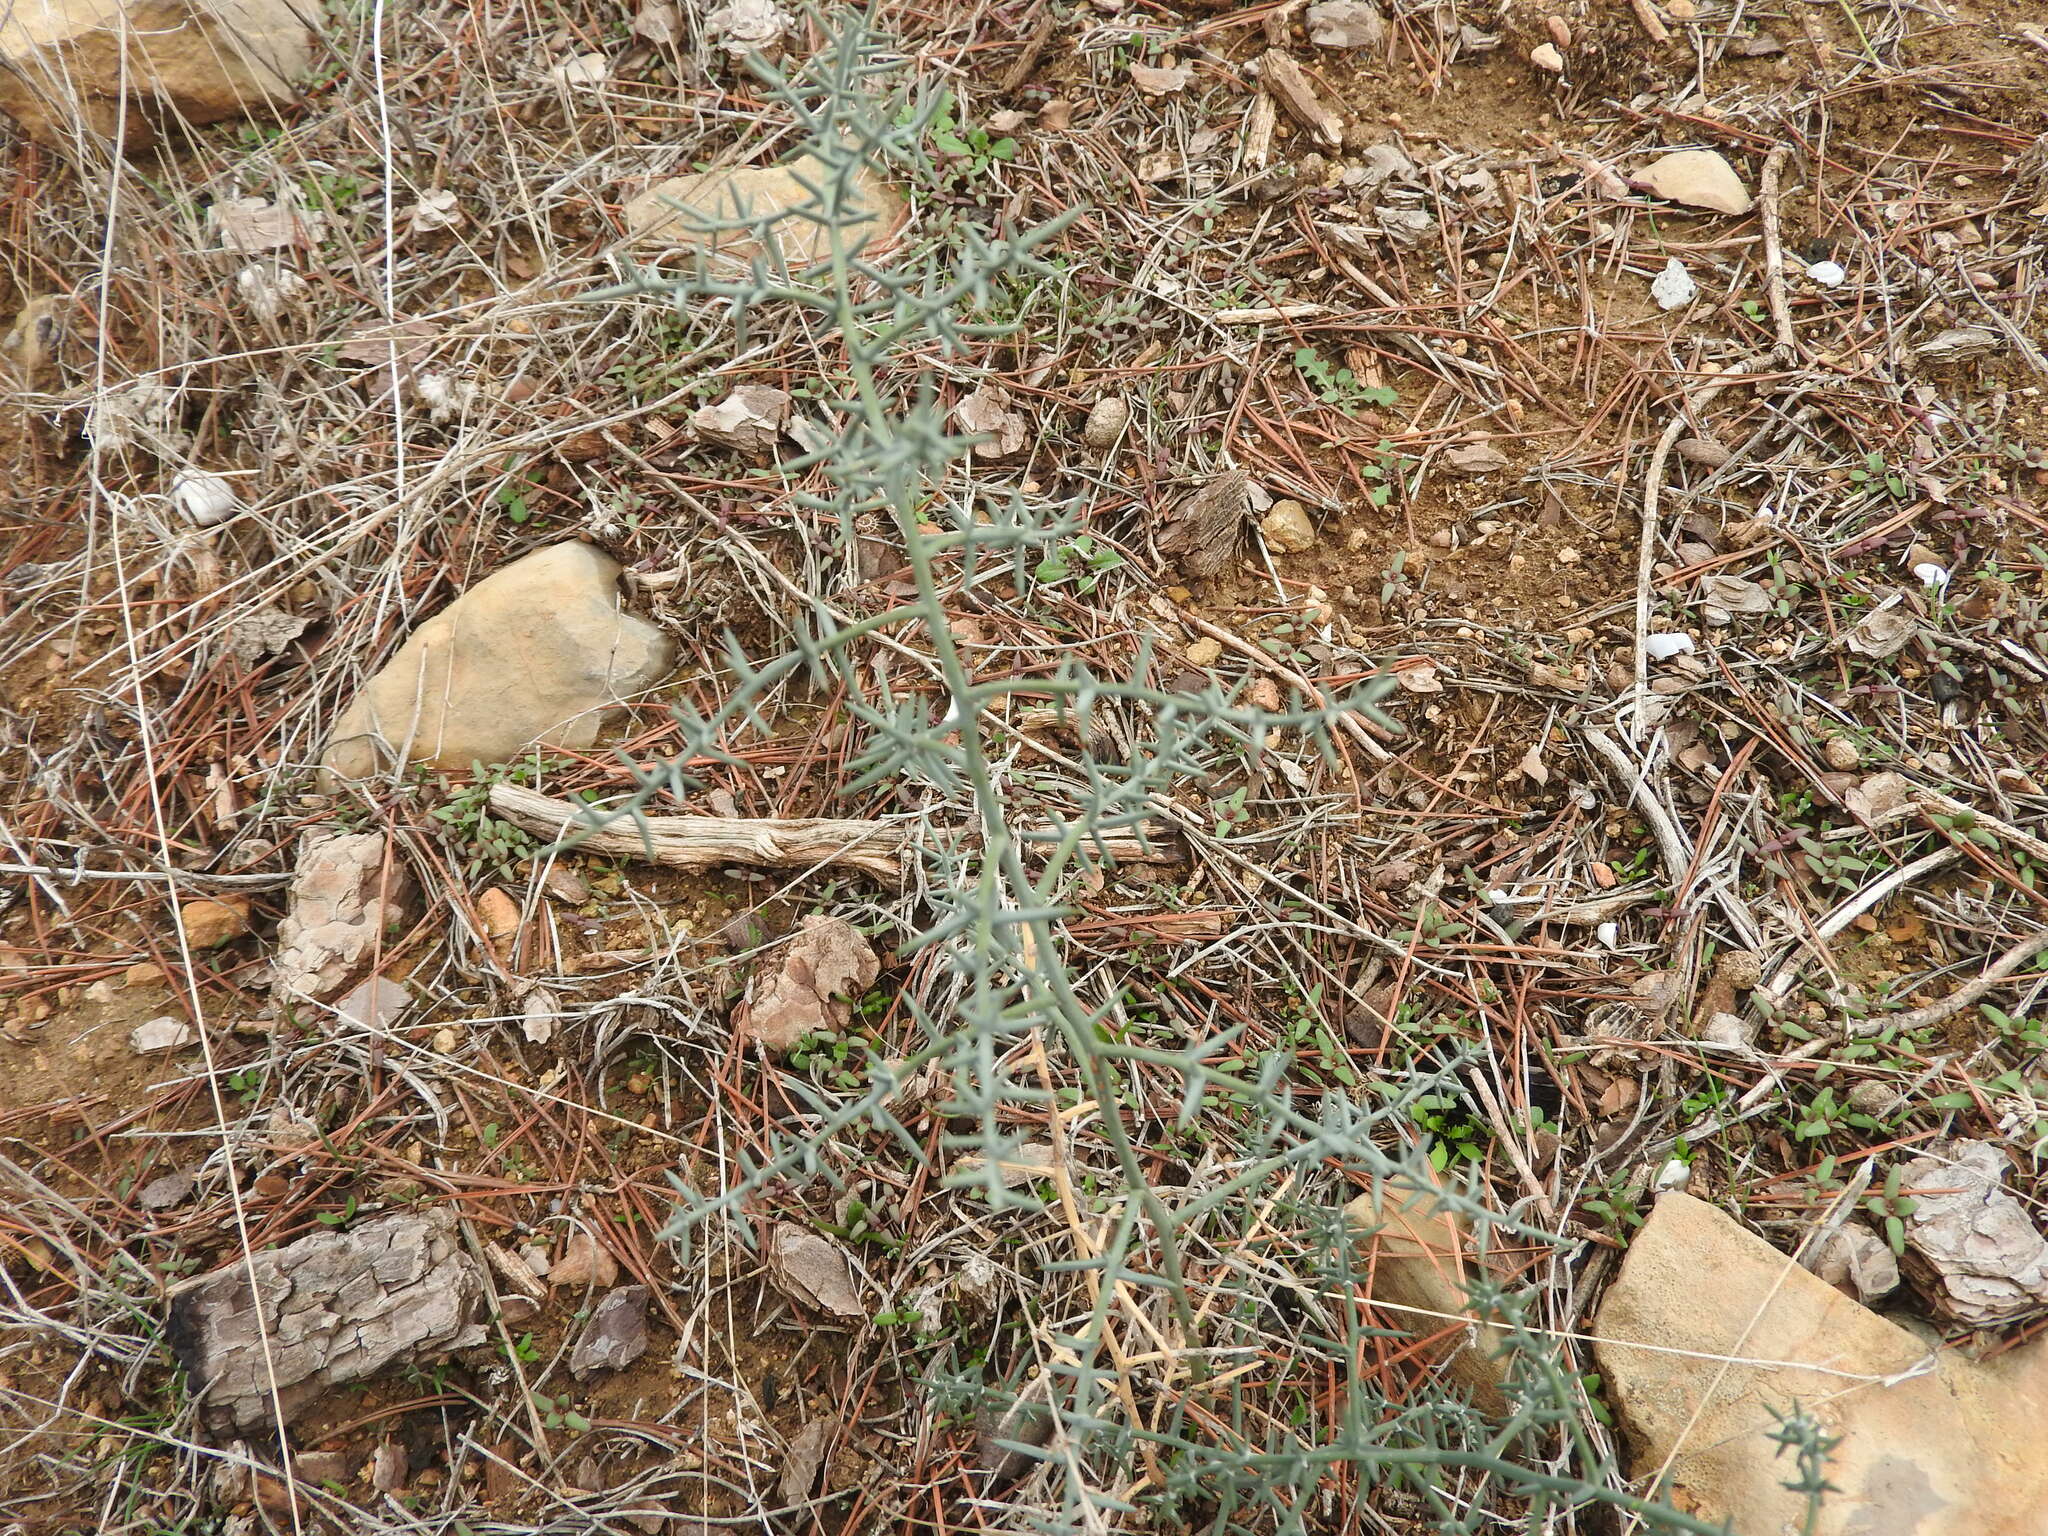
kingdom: Plantae
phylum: Tracheophyta
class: Liliopsida
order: Asparagales
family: Asparagaceae
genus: Asparagus
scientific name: Asparagus horridus
